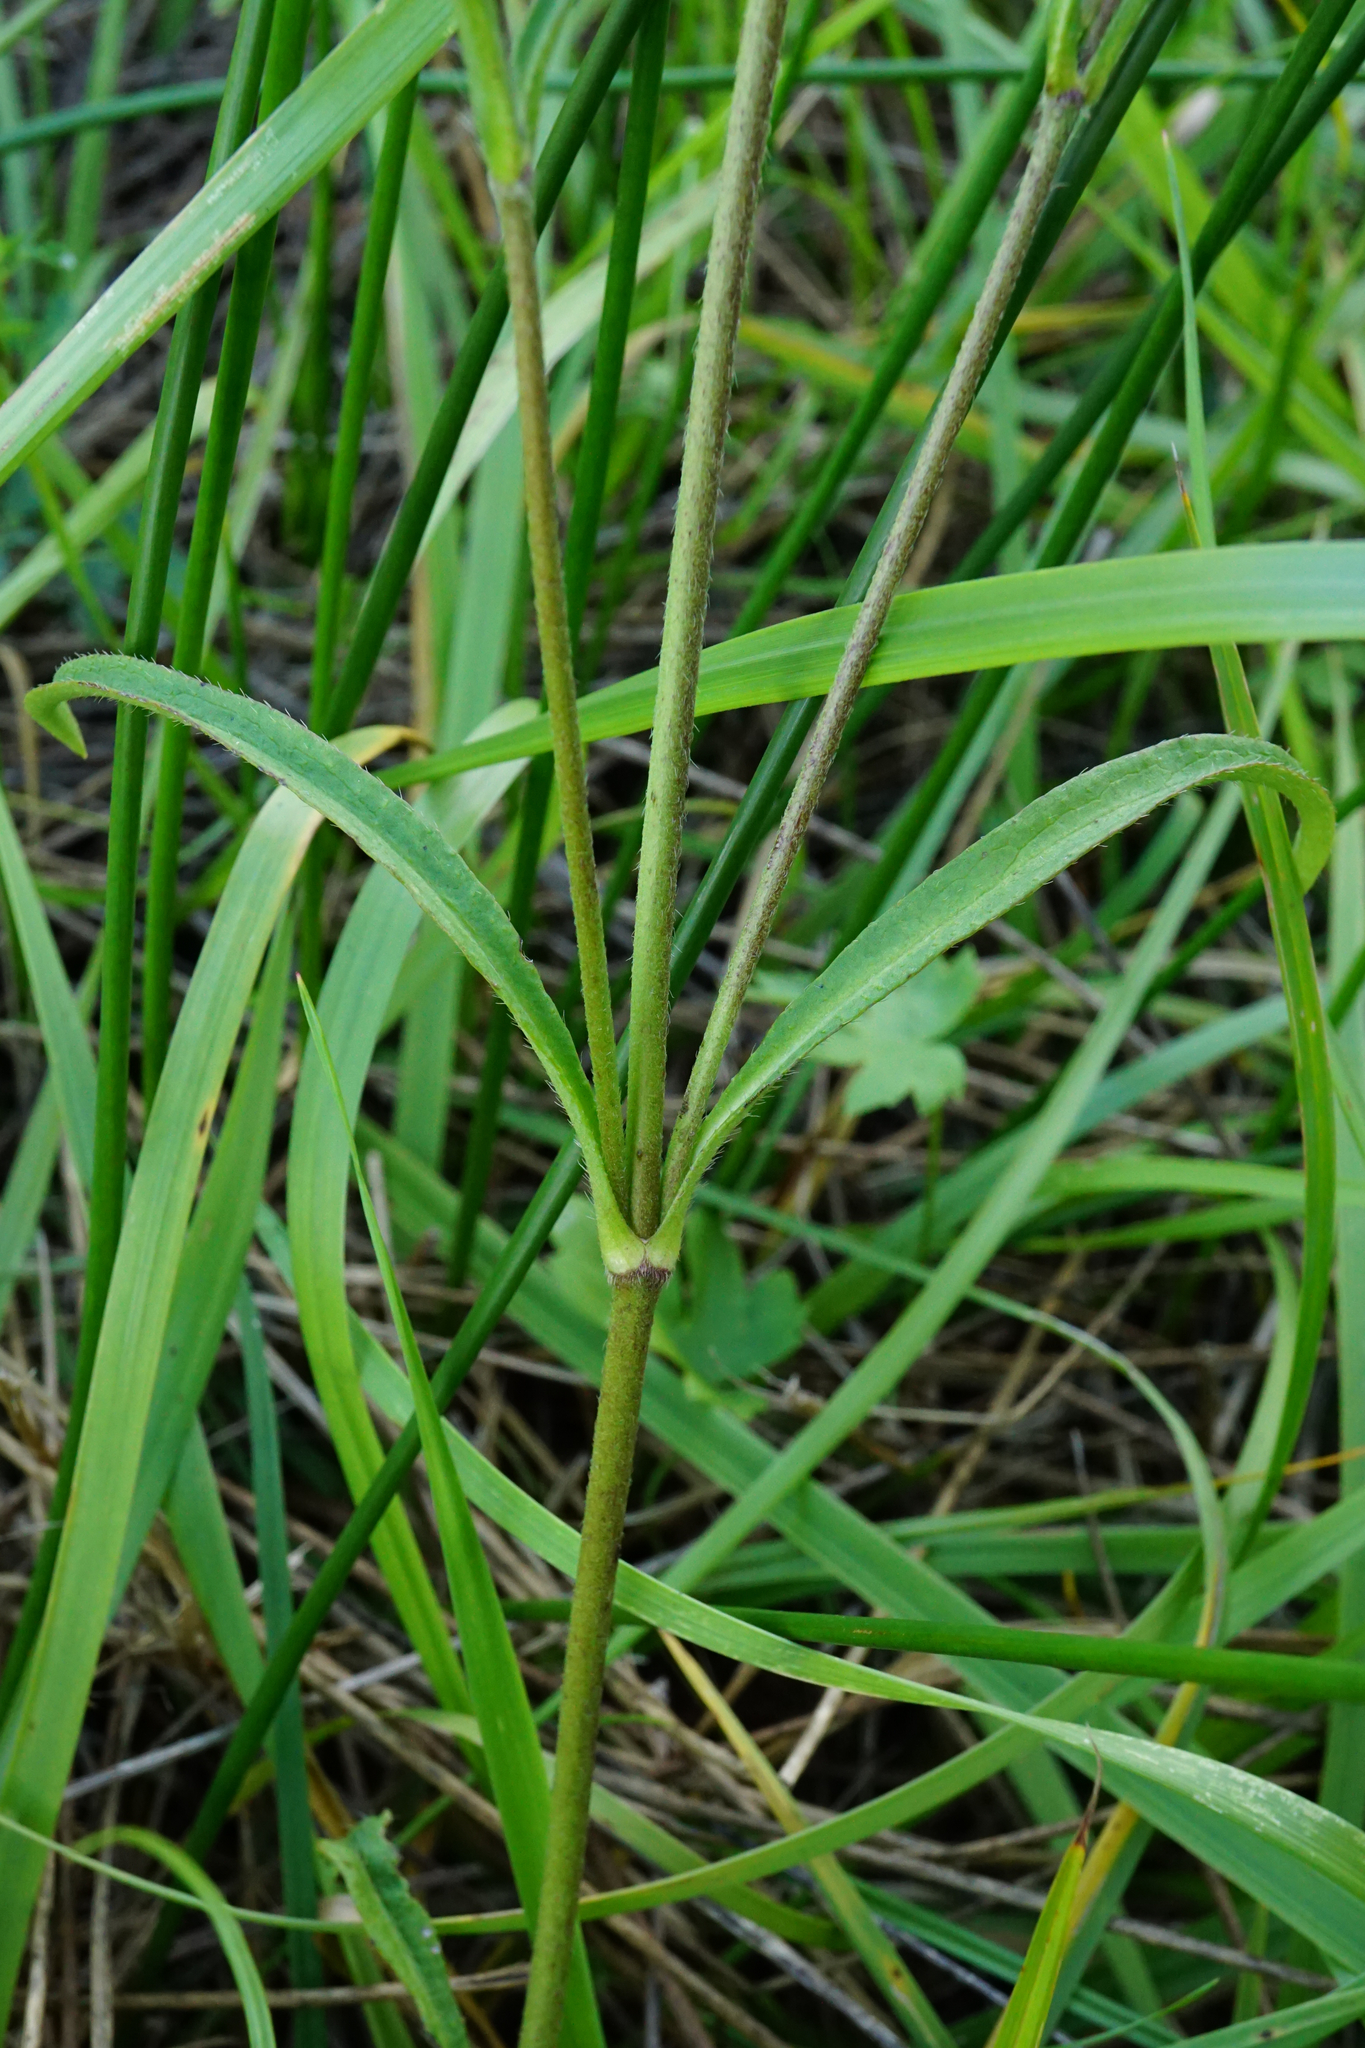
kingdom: Plantae
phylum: Tracheophyta
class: Magnoliopsida
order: Dipsacales
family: Caprifoliaceae
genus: Succisa
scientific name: Succisa pratensis
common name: Devil's-bit
